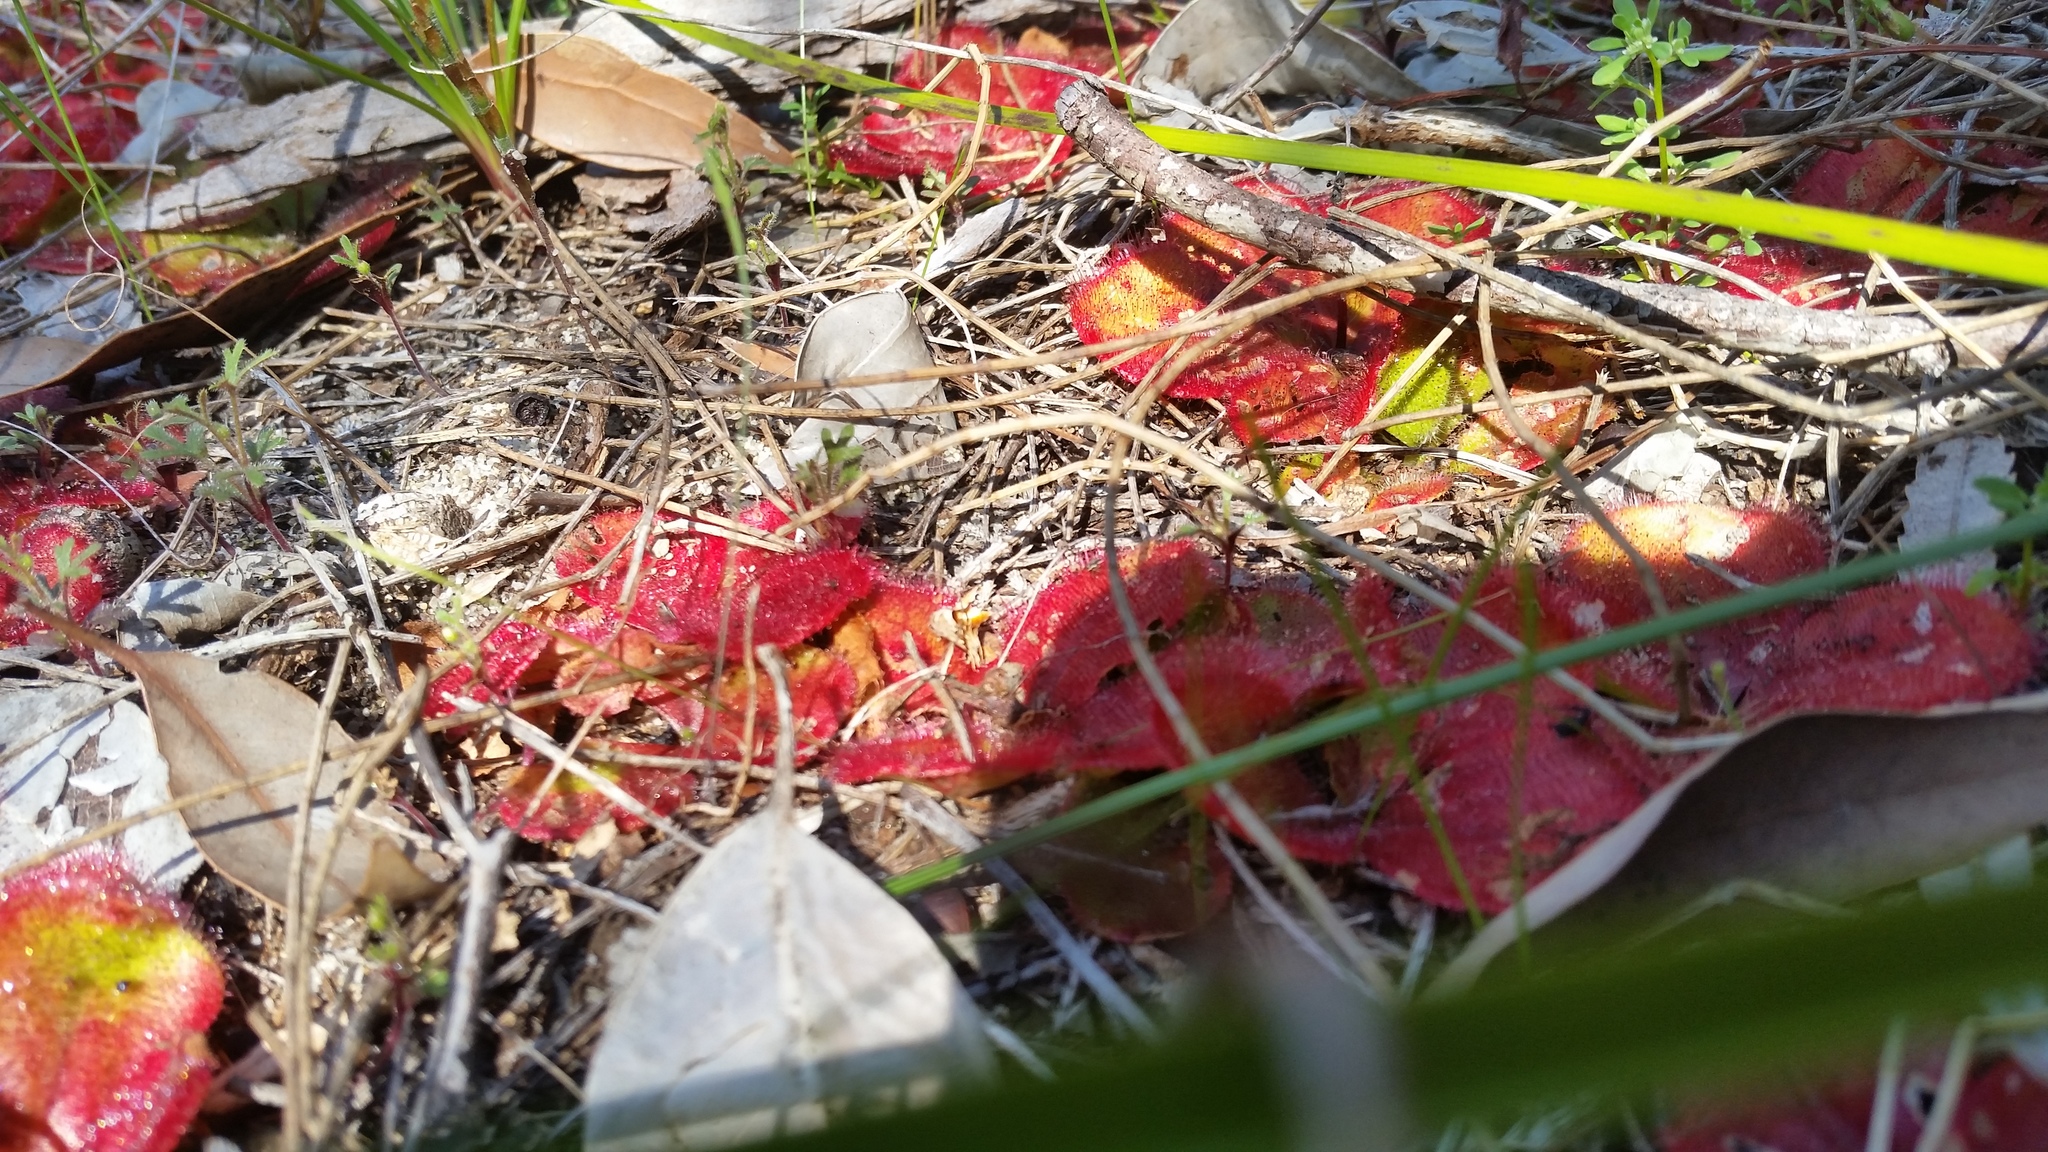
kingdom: Plantae
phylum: Tracheophyta
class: Magnoliopsida
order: Caryophyllales
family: Droseraceae
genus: Drosera
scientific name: Drosera erythrorhiza
